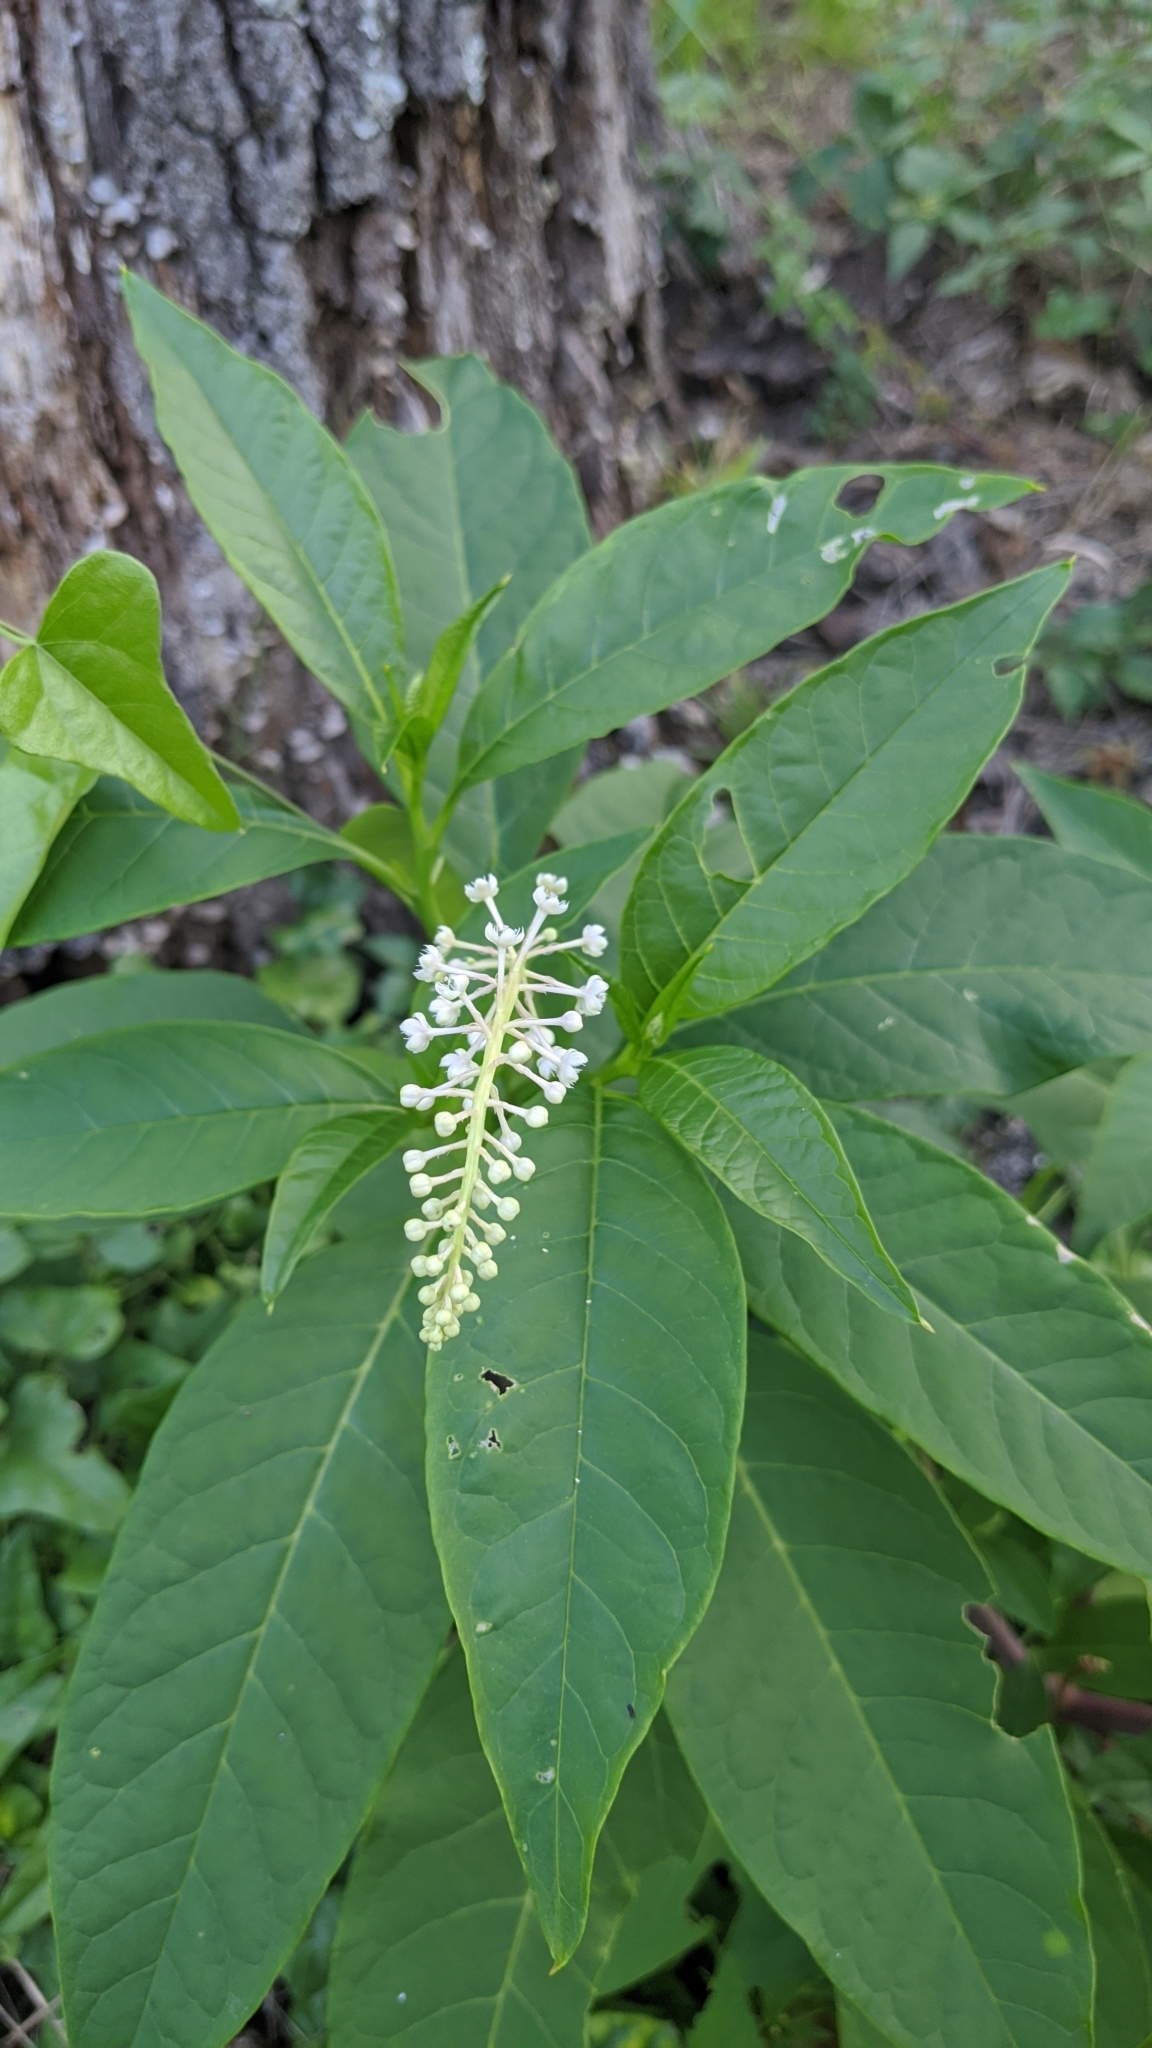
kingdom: Plantae
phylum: Tracheophyta
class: Magnoliopsida
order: Caryophyllales
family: Phytolaccaceae
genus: Phytolacca
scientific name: Phytolacca americana
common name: American pokeweed
